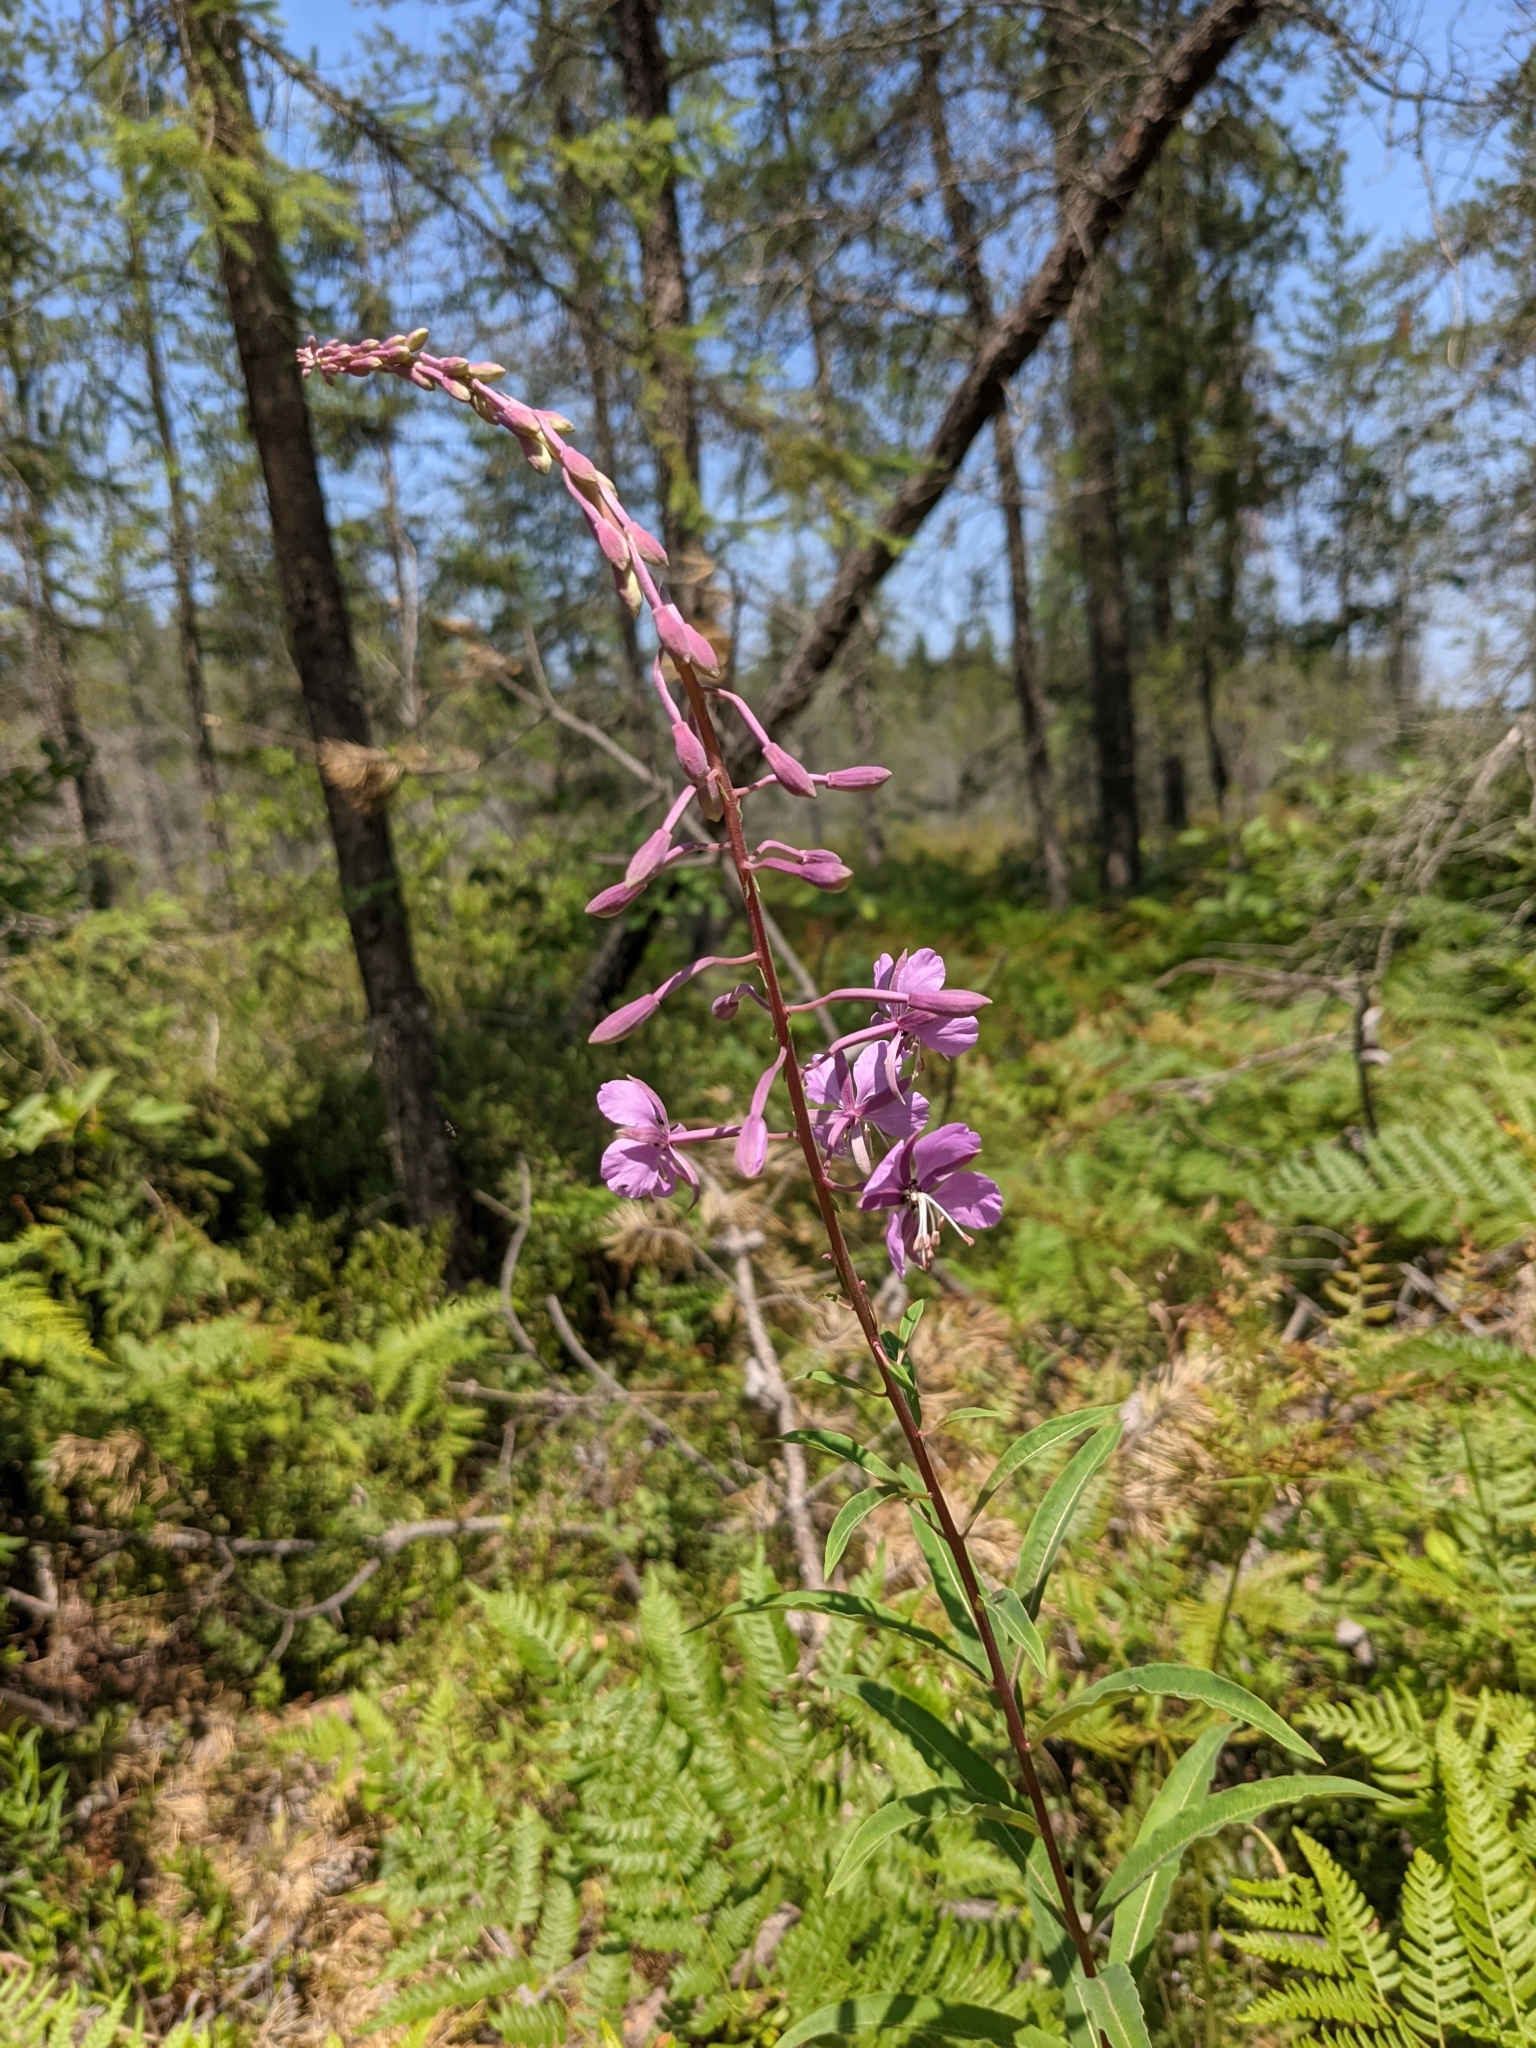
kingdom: Plantae
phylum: Tracheophyta
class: Magnoliopsida
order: Myrtales
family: Onagraceae
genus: Chamaenerion
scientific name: Chamaenerion angustifolium
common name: Fireweed
